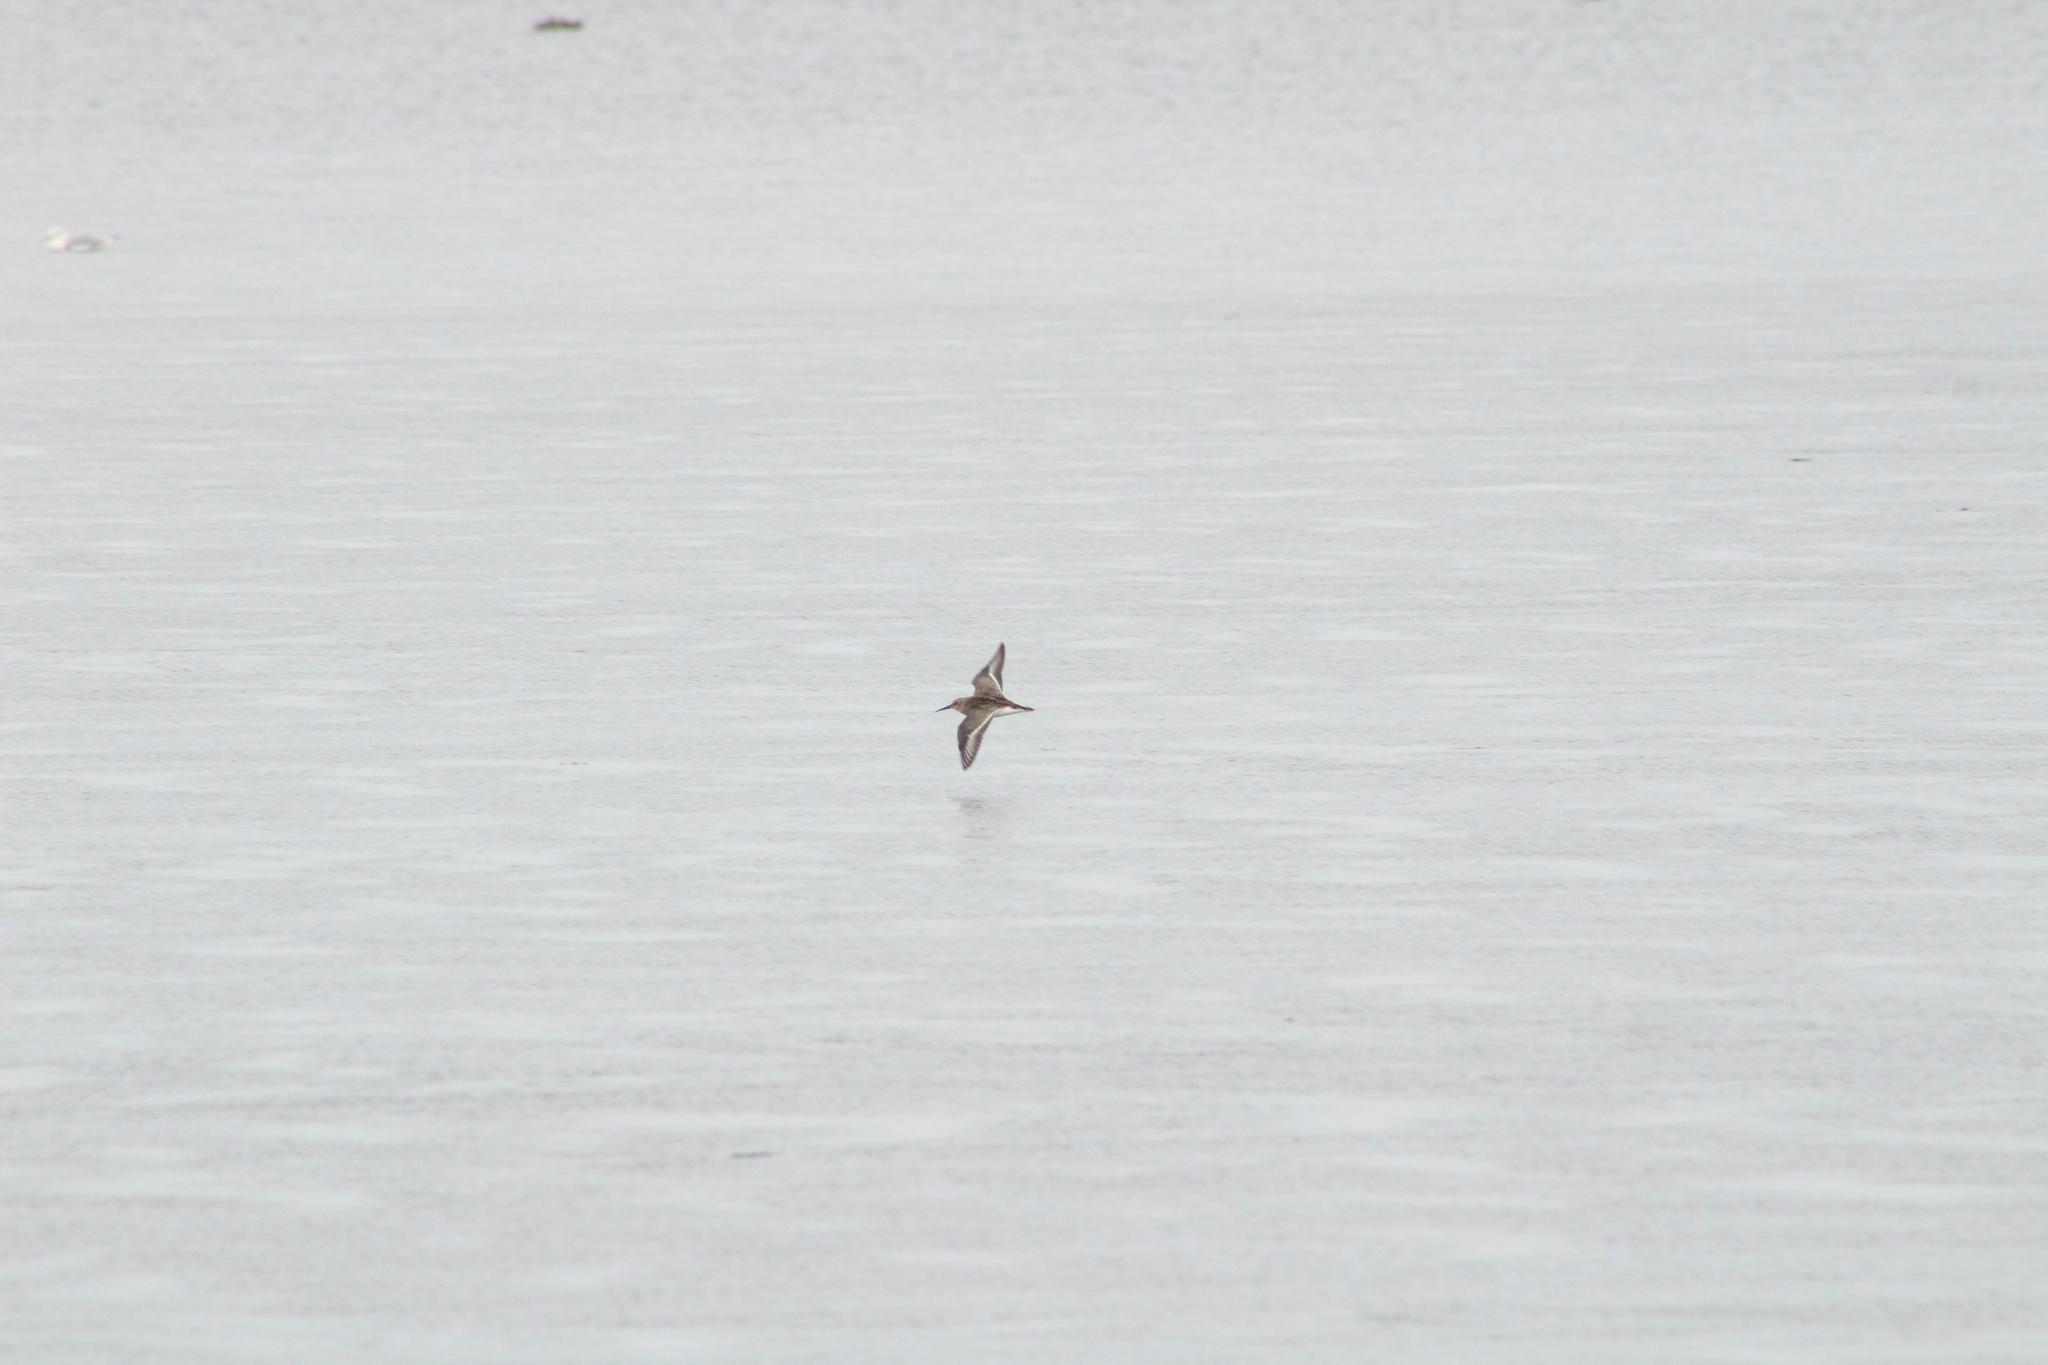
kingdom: Animalia
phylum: Chordata
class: Aves
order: Charadriiformes
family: Scolopacidae
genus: Calidris
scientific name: Calidris alpina
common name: Dunlin
